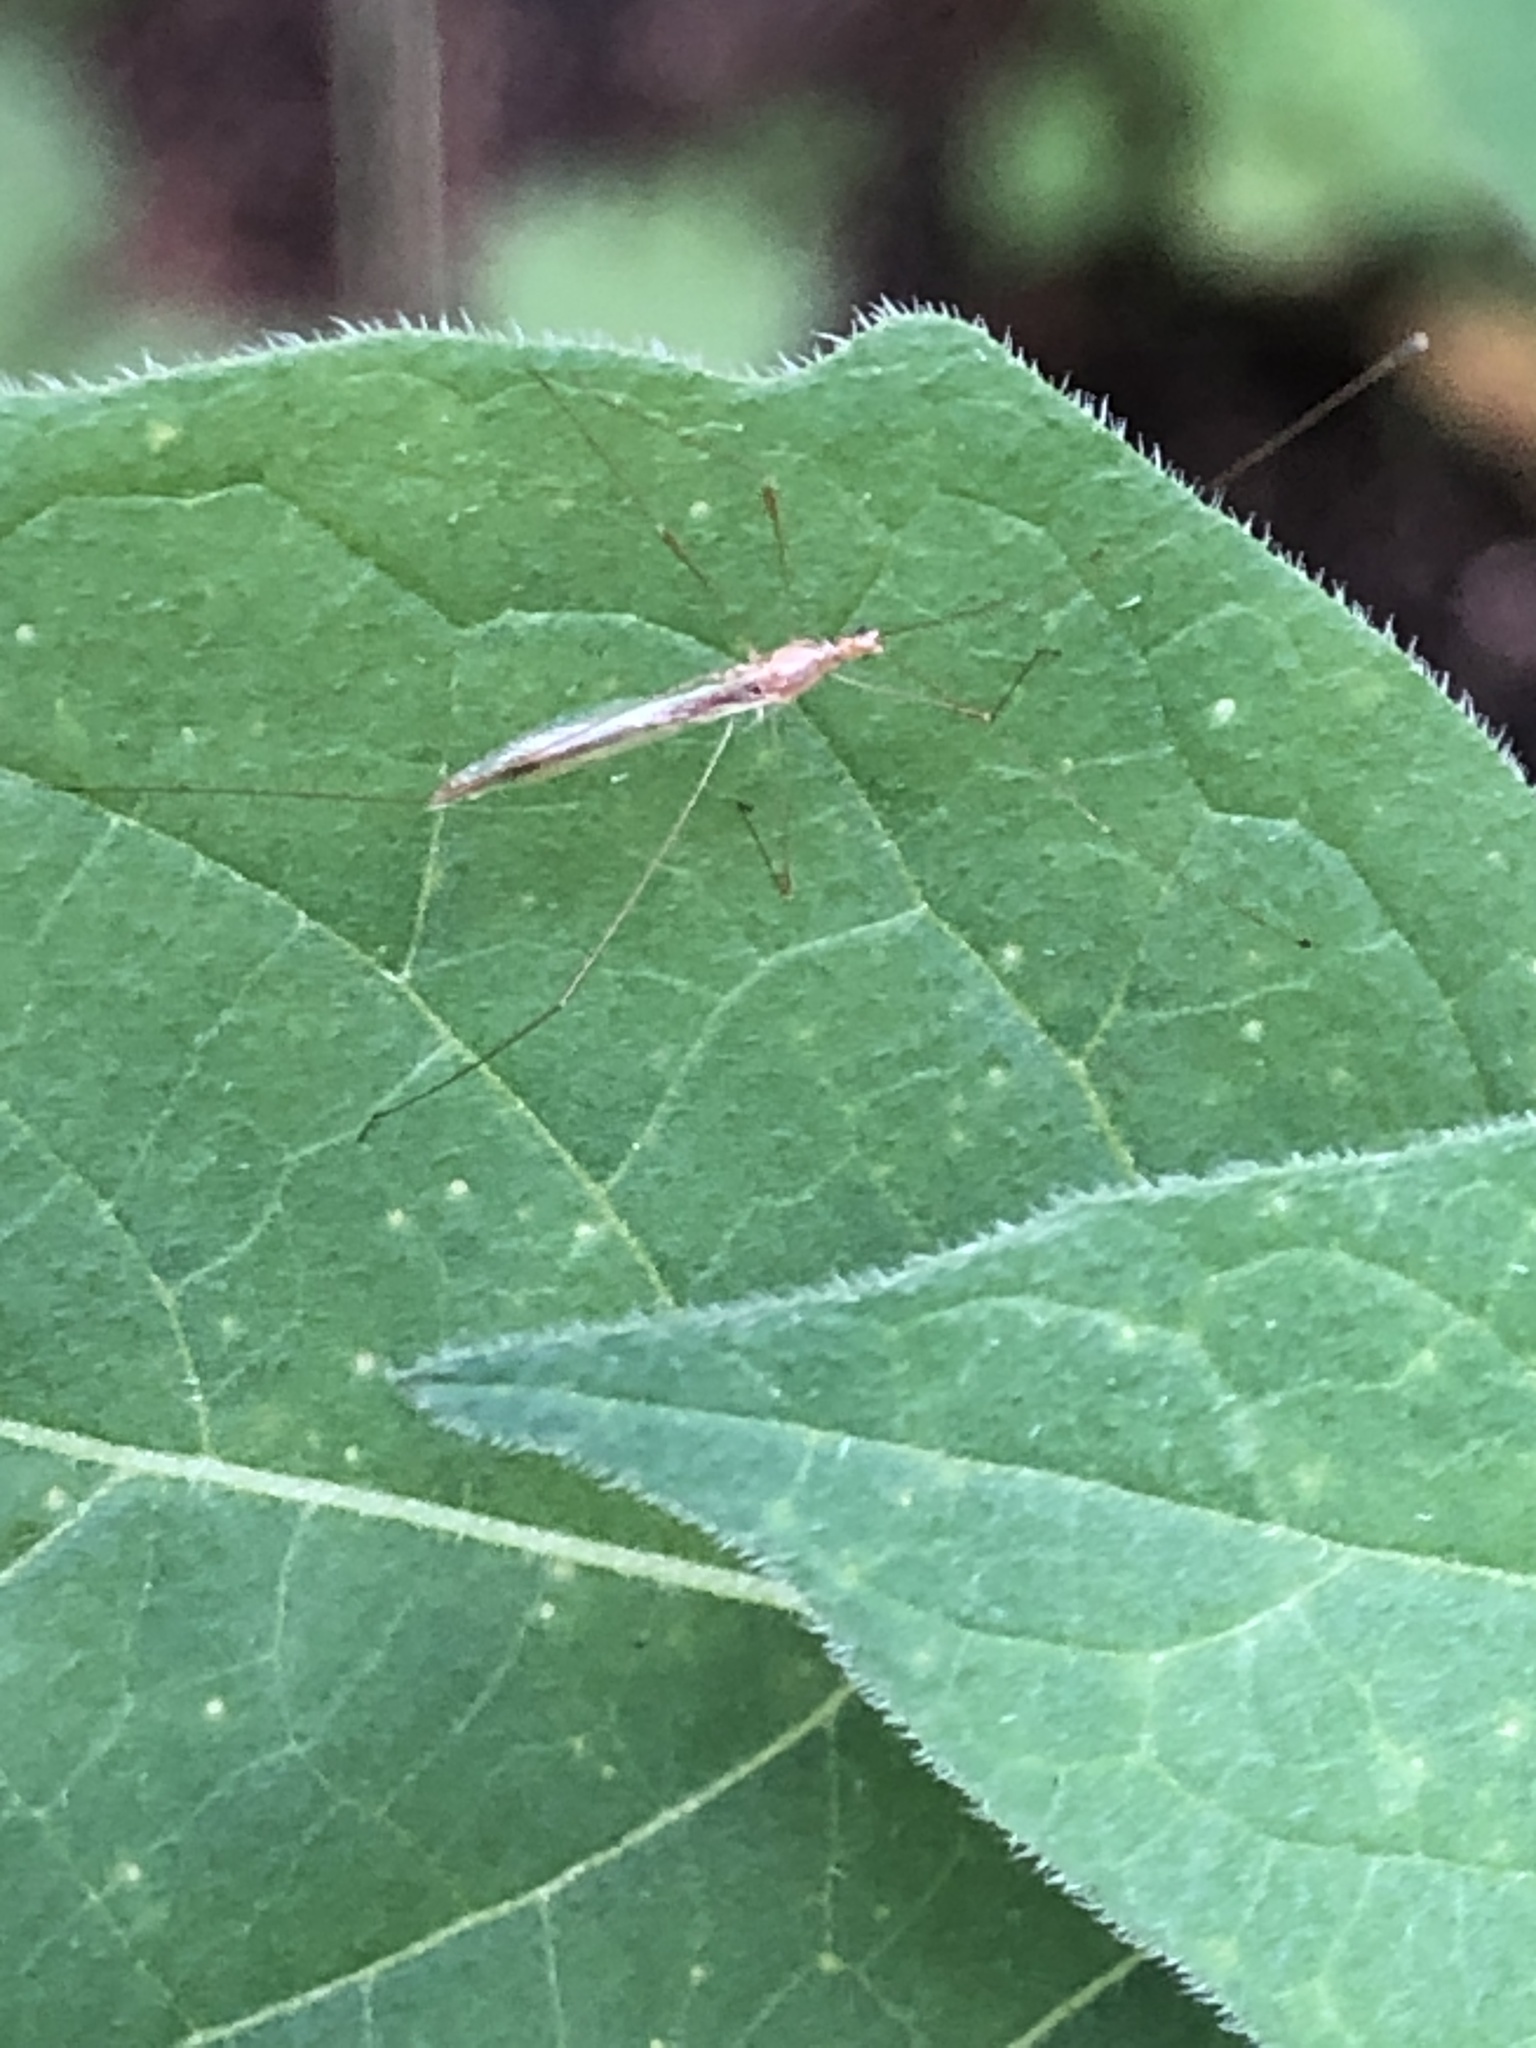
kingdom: Animalia
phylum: Arthropoda
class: Insecta
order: Hemiptera
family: Berytidae
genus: Yemma
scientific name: Yemma exilis
